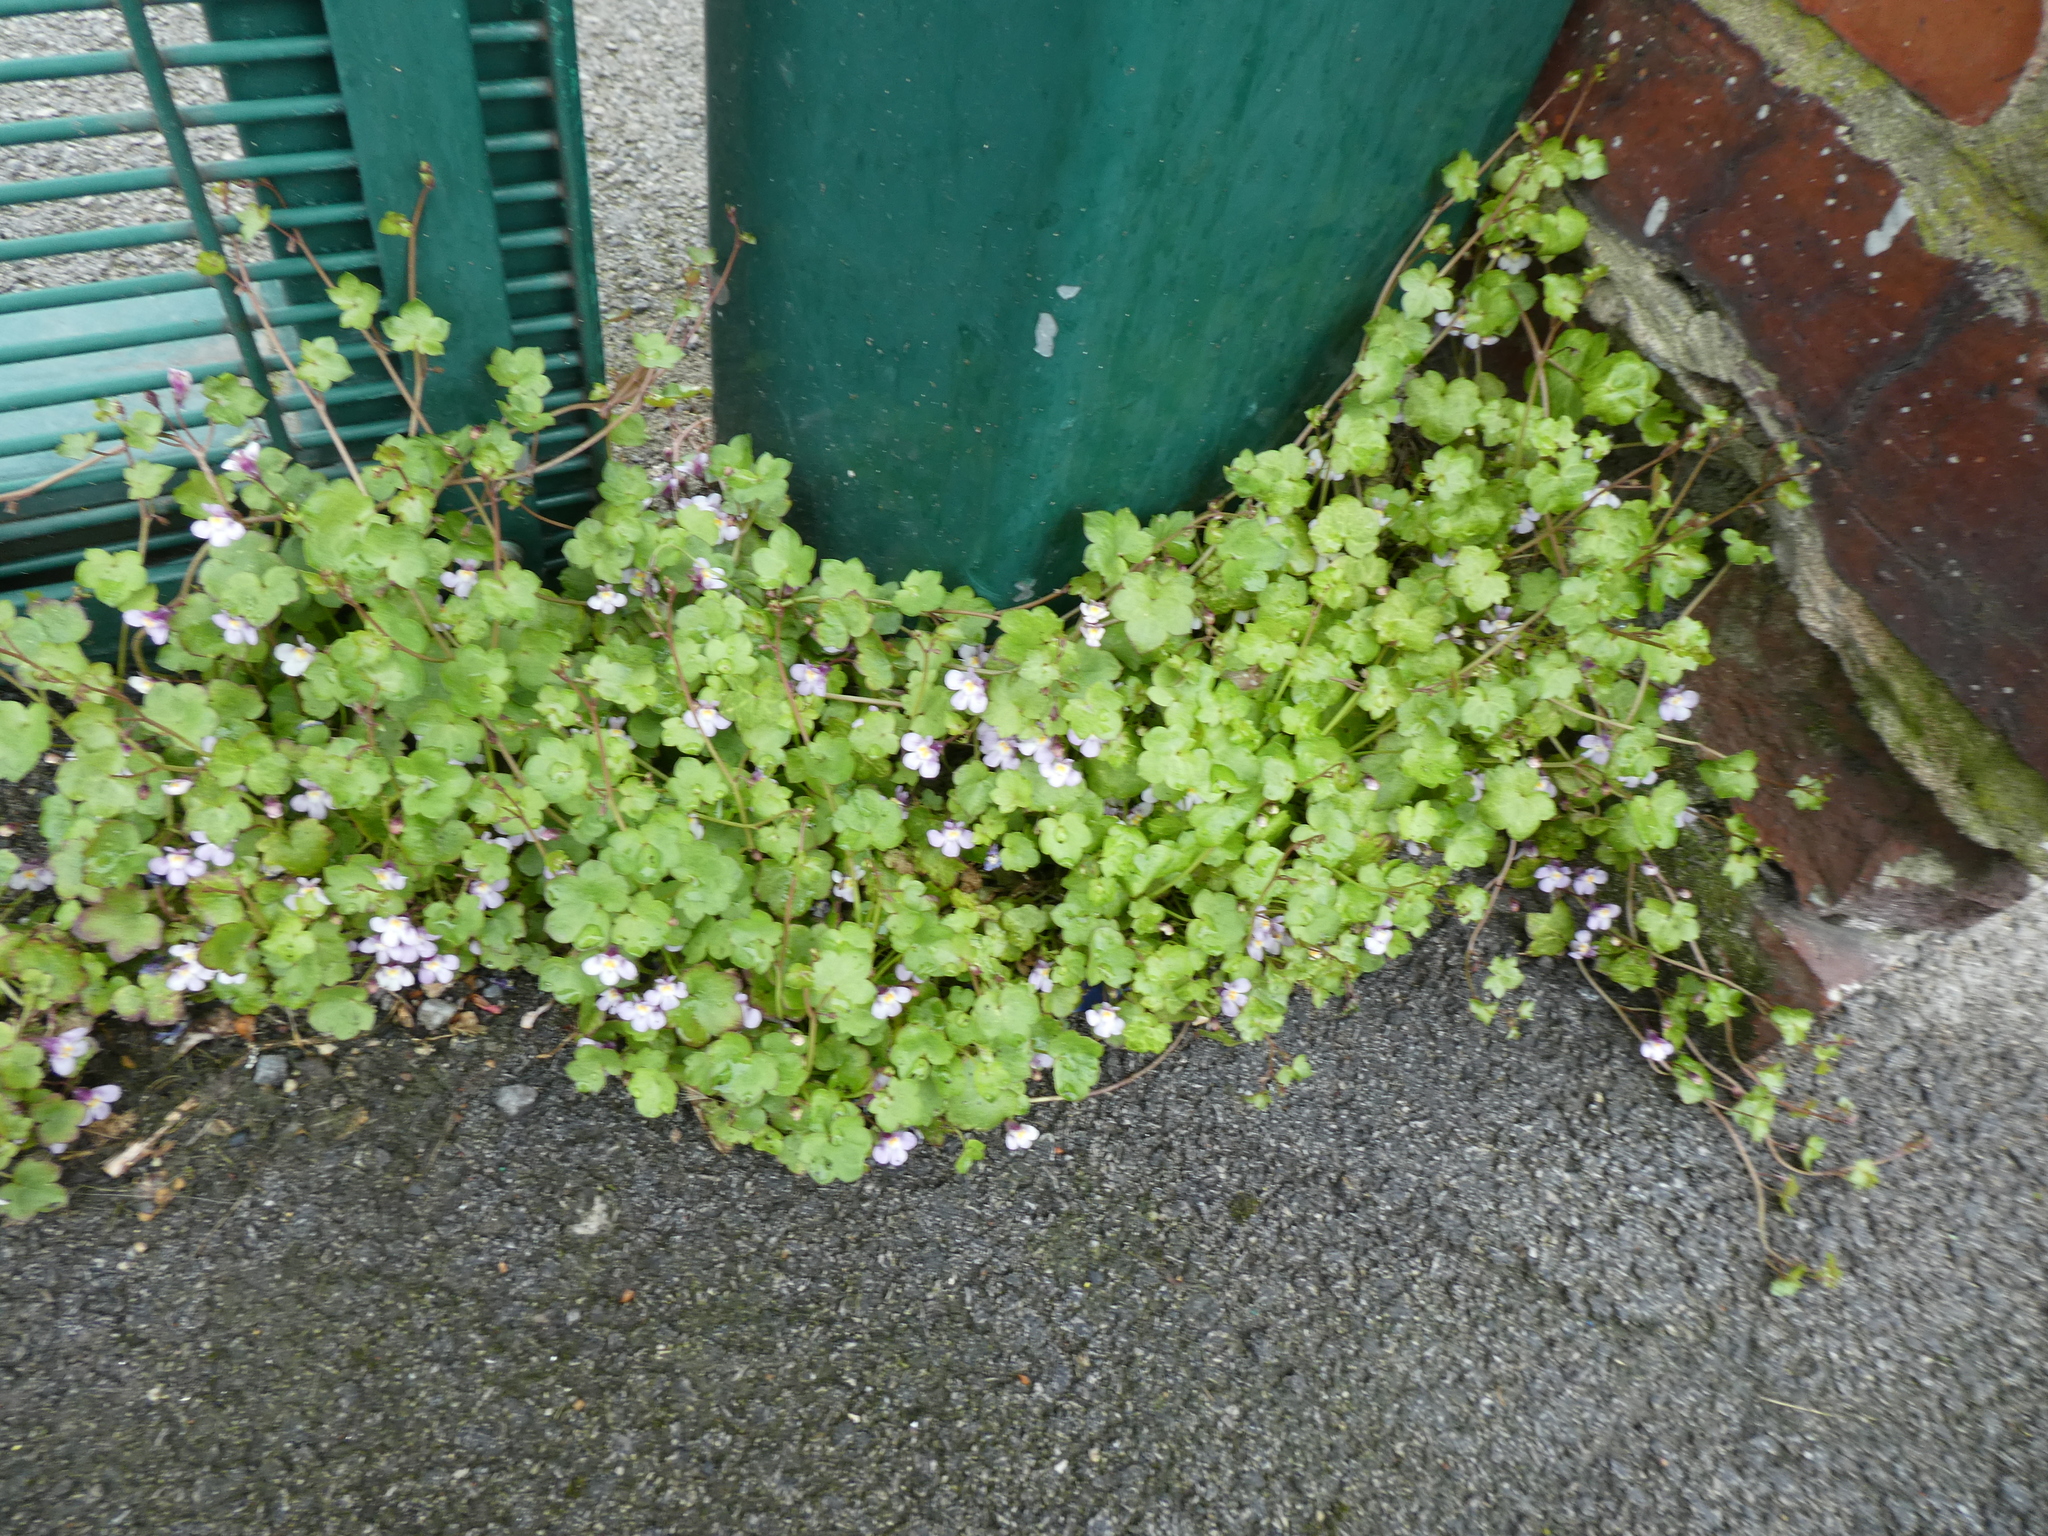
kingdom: Plantae
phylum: Tracheophyta
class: Magnoliopsida
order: Lamiales
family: Plantaginaceae
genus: Cymbalaria
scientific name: Cymbalaria muralis
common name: Ivy-leaved toadflax
